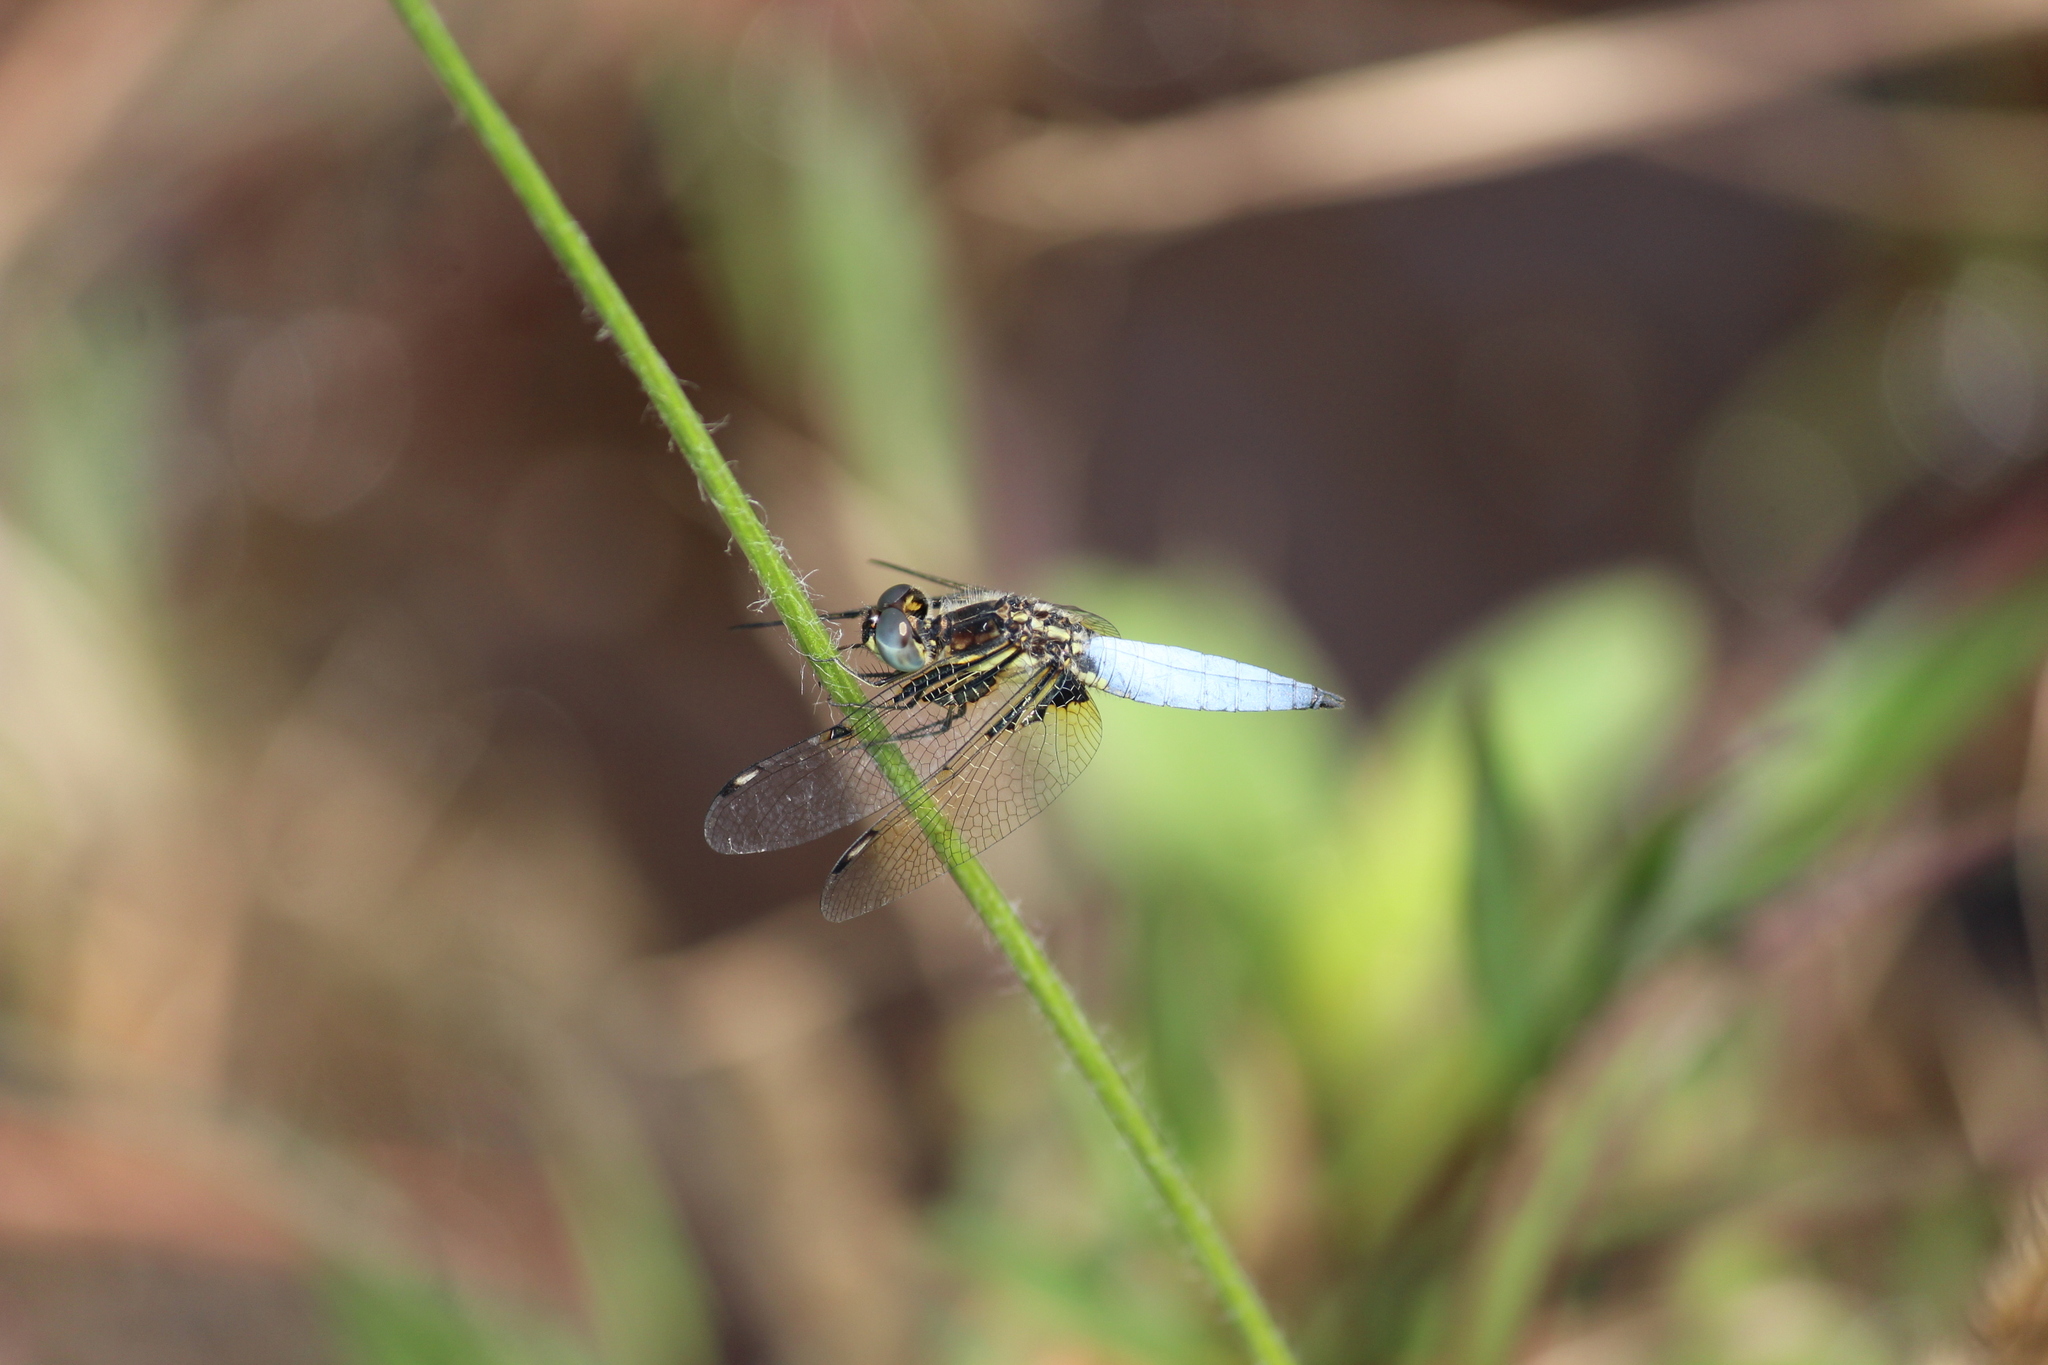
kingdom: Animalia
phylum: Arthropoda
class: Insecta
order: Odonata
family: Libellulidae
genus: Palpopleura
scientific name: Palpopleura sexmaculata
